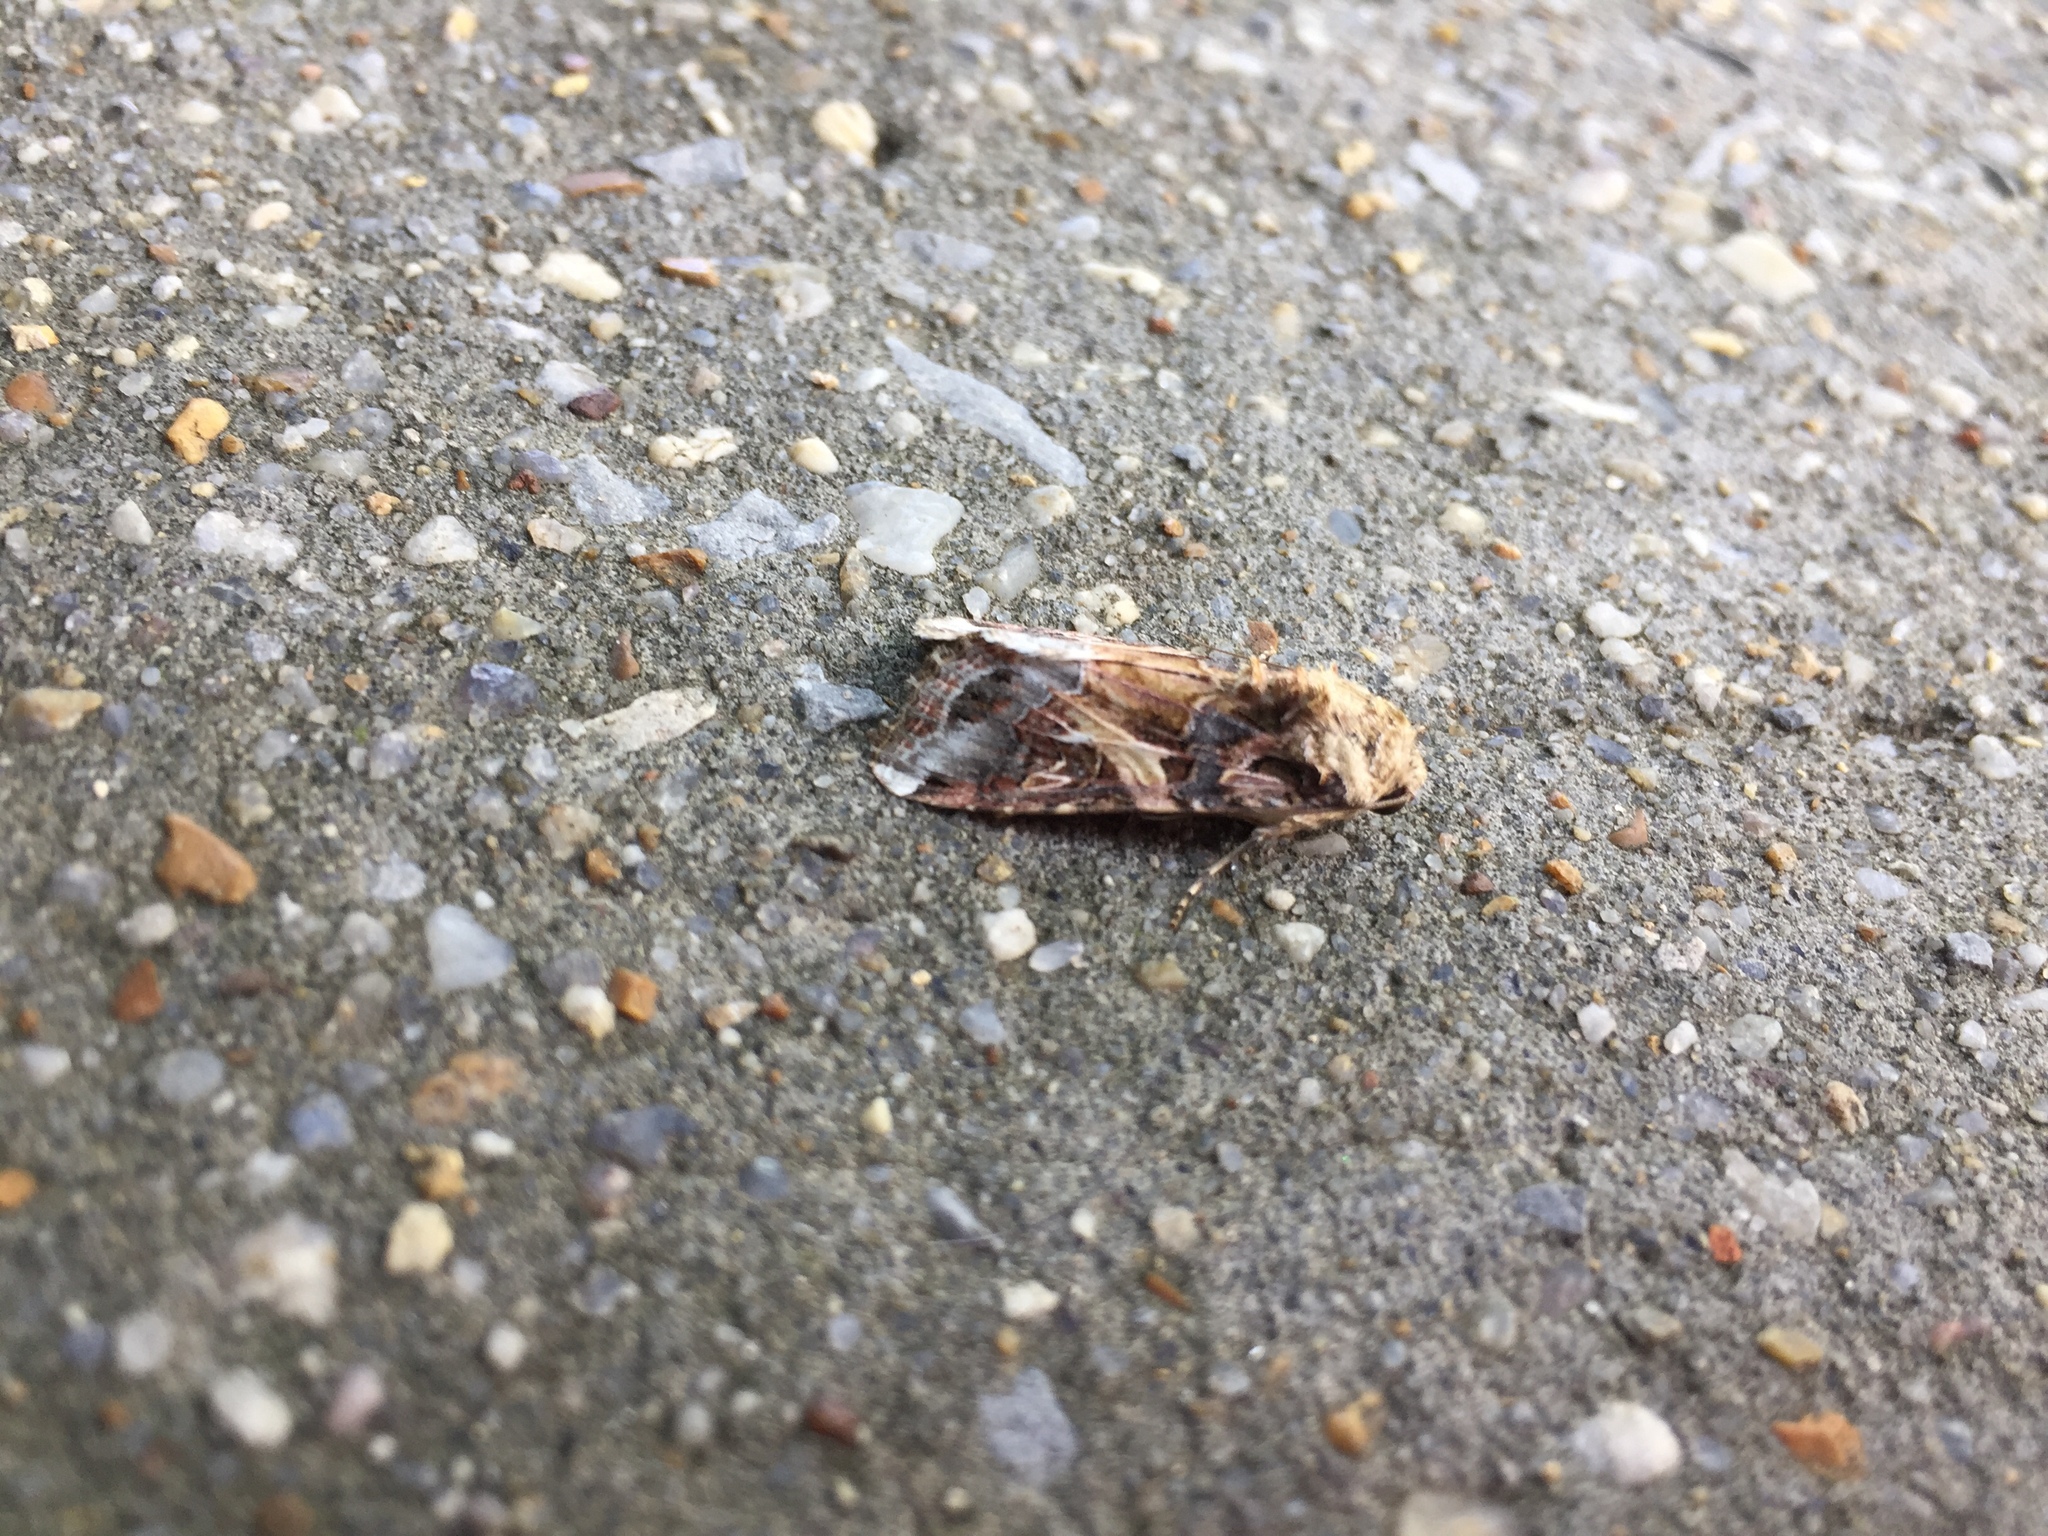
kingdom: Animalia
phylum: Arthropoda
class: Insecta
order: Lepidoptera
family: Noctuidae
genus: Spodoptera
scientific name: Spodoptera ornithogalli
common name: Yellow-striped armyworm
